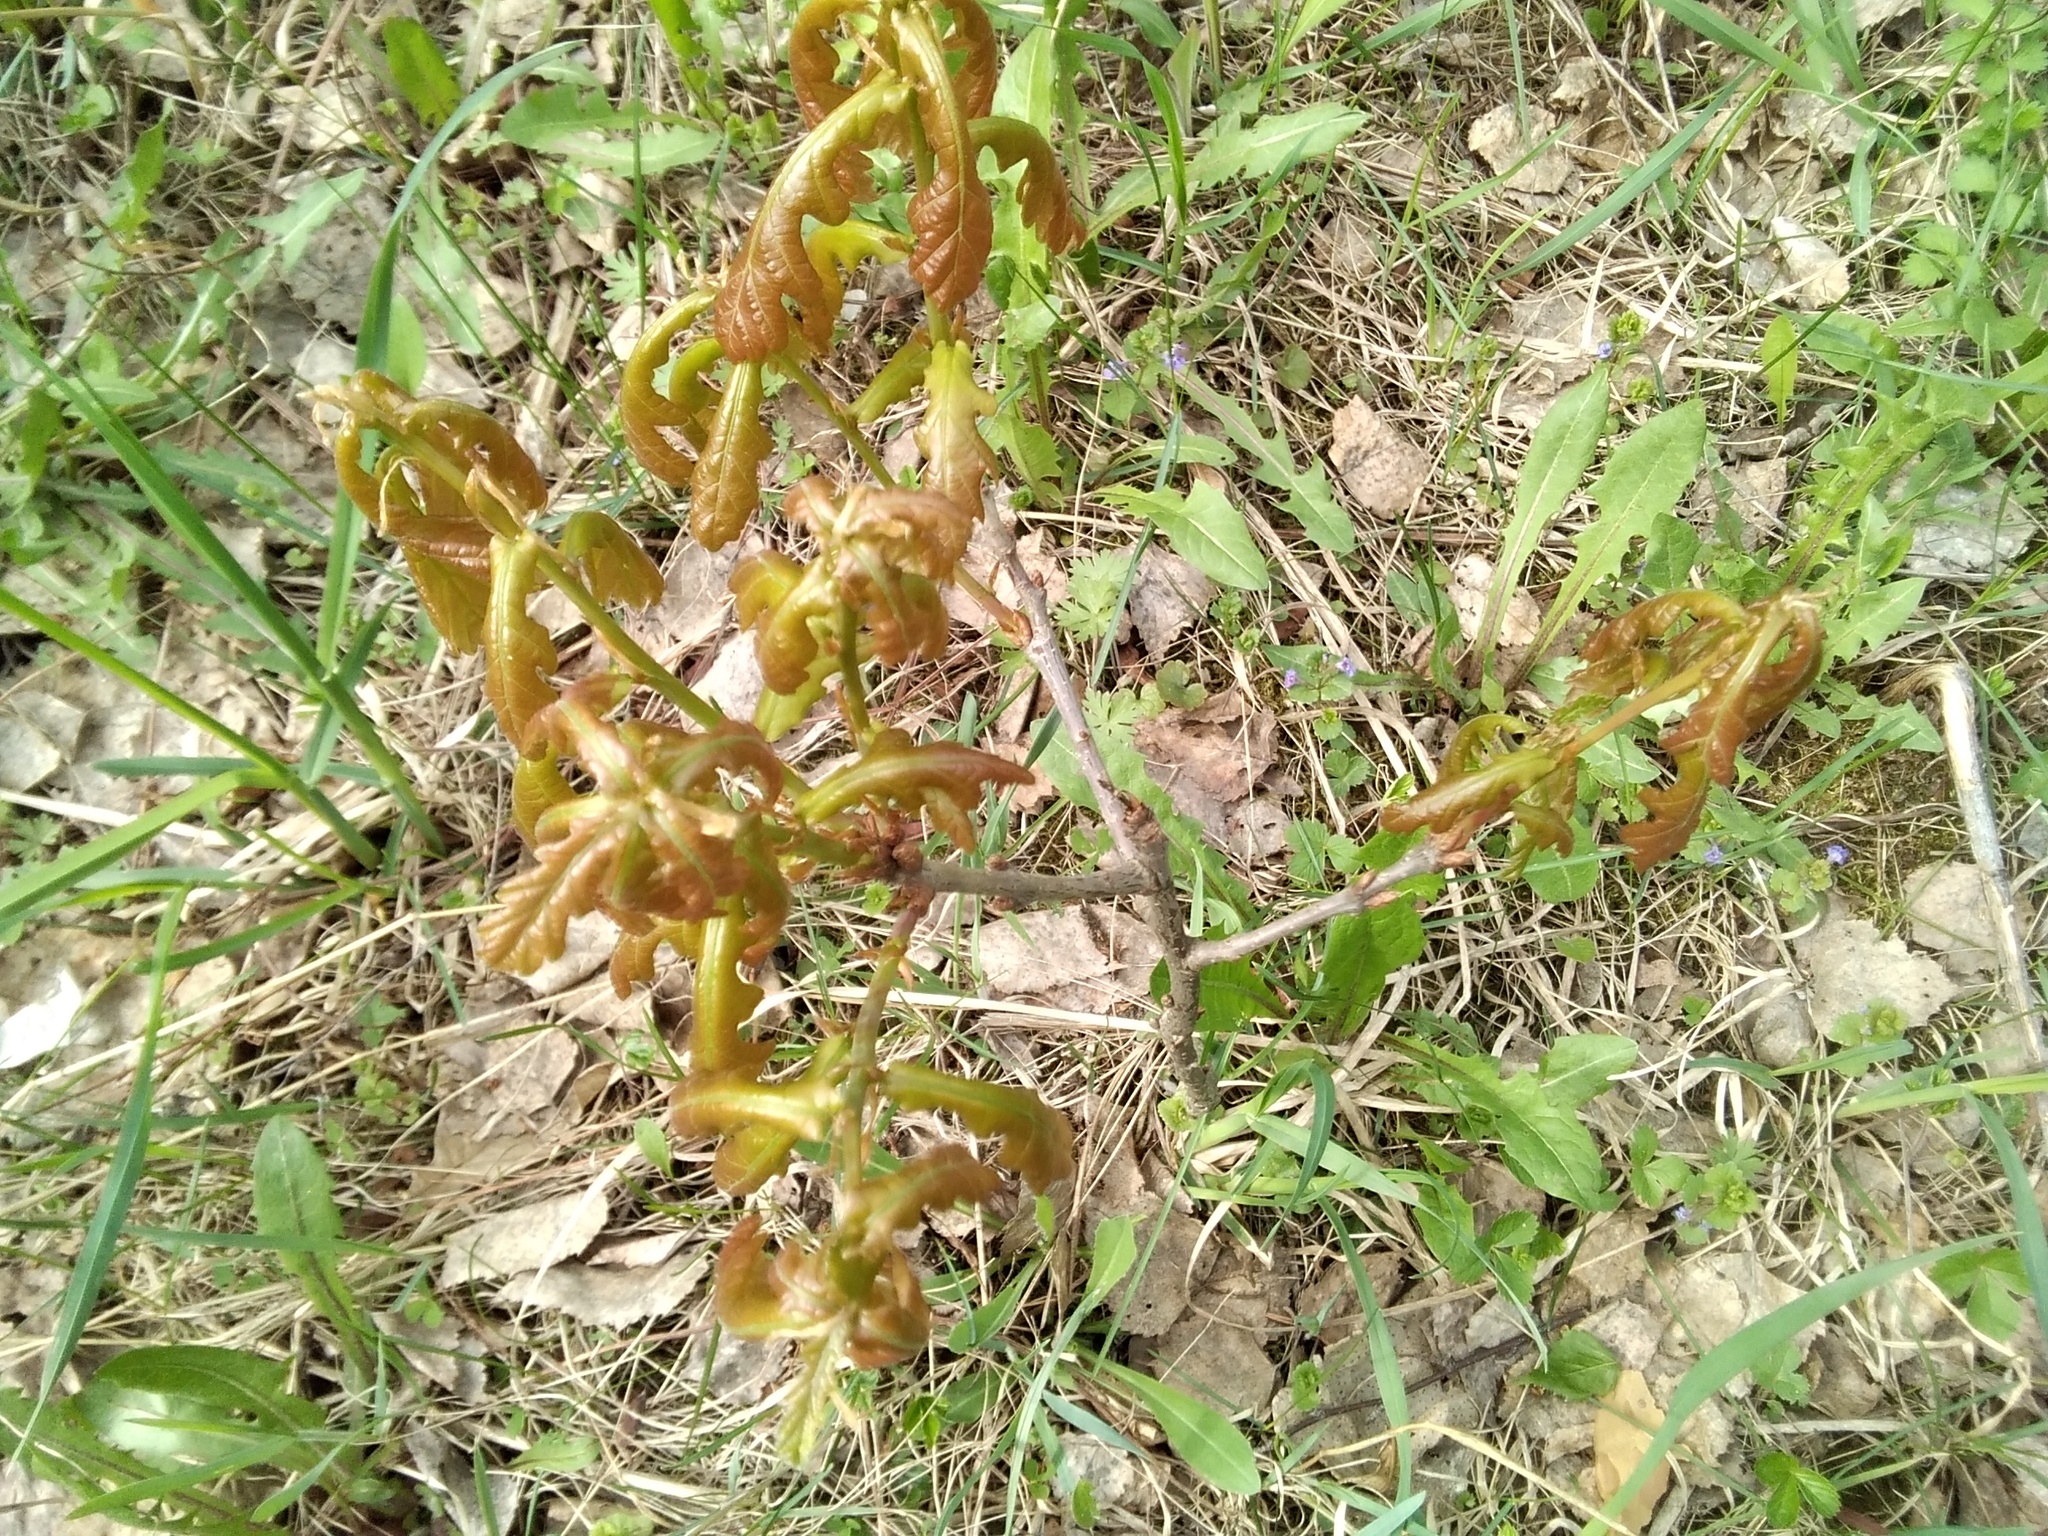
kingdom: Plantae
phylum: Tracheophyta
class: Magnoliopsida
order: Fagales
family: Fagaceae
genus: Quercus
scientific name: Quercus robur
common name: Pedunculate oak
